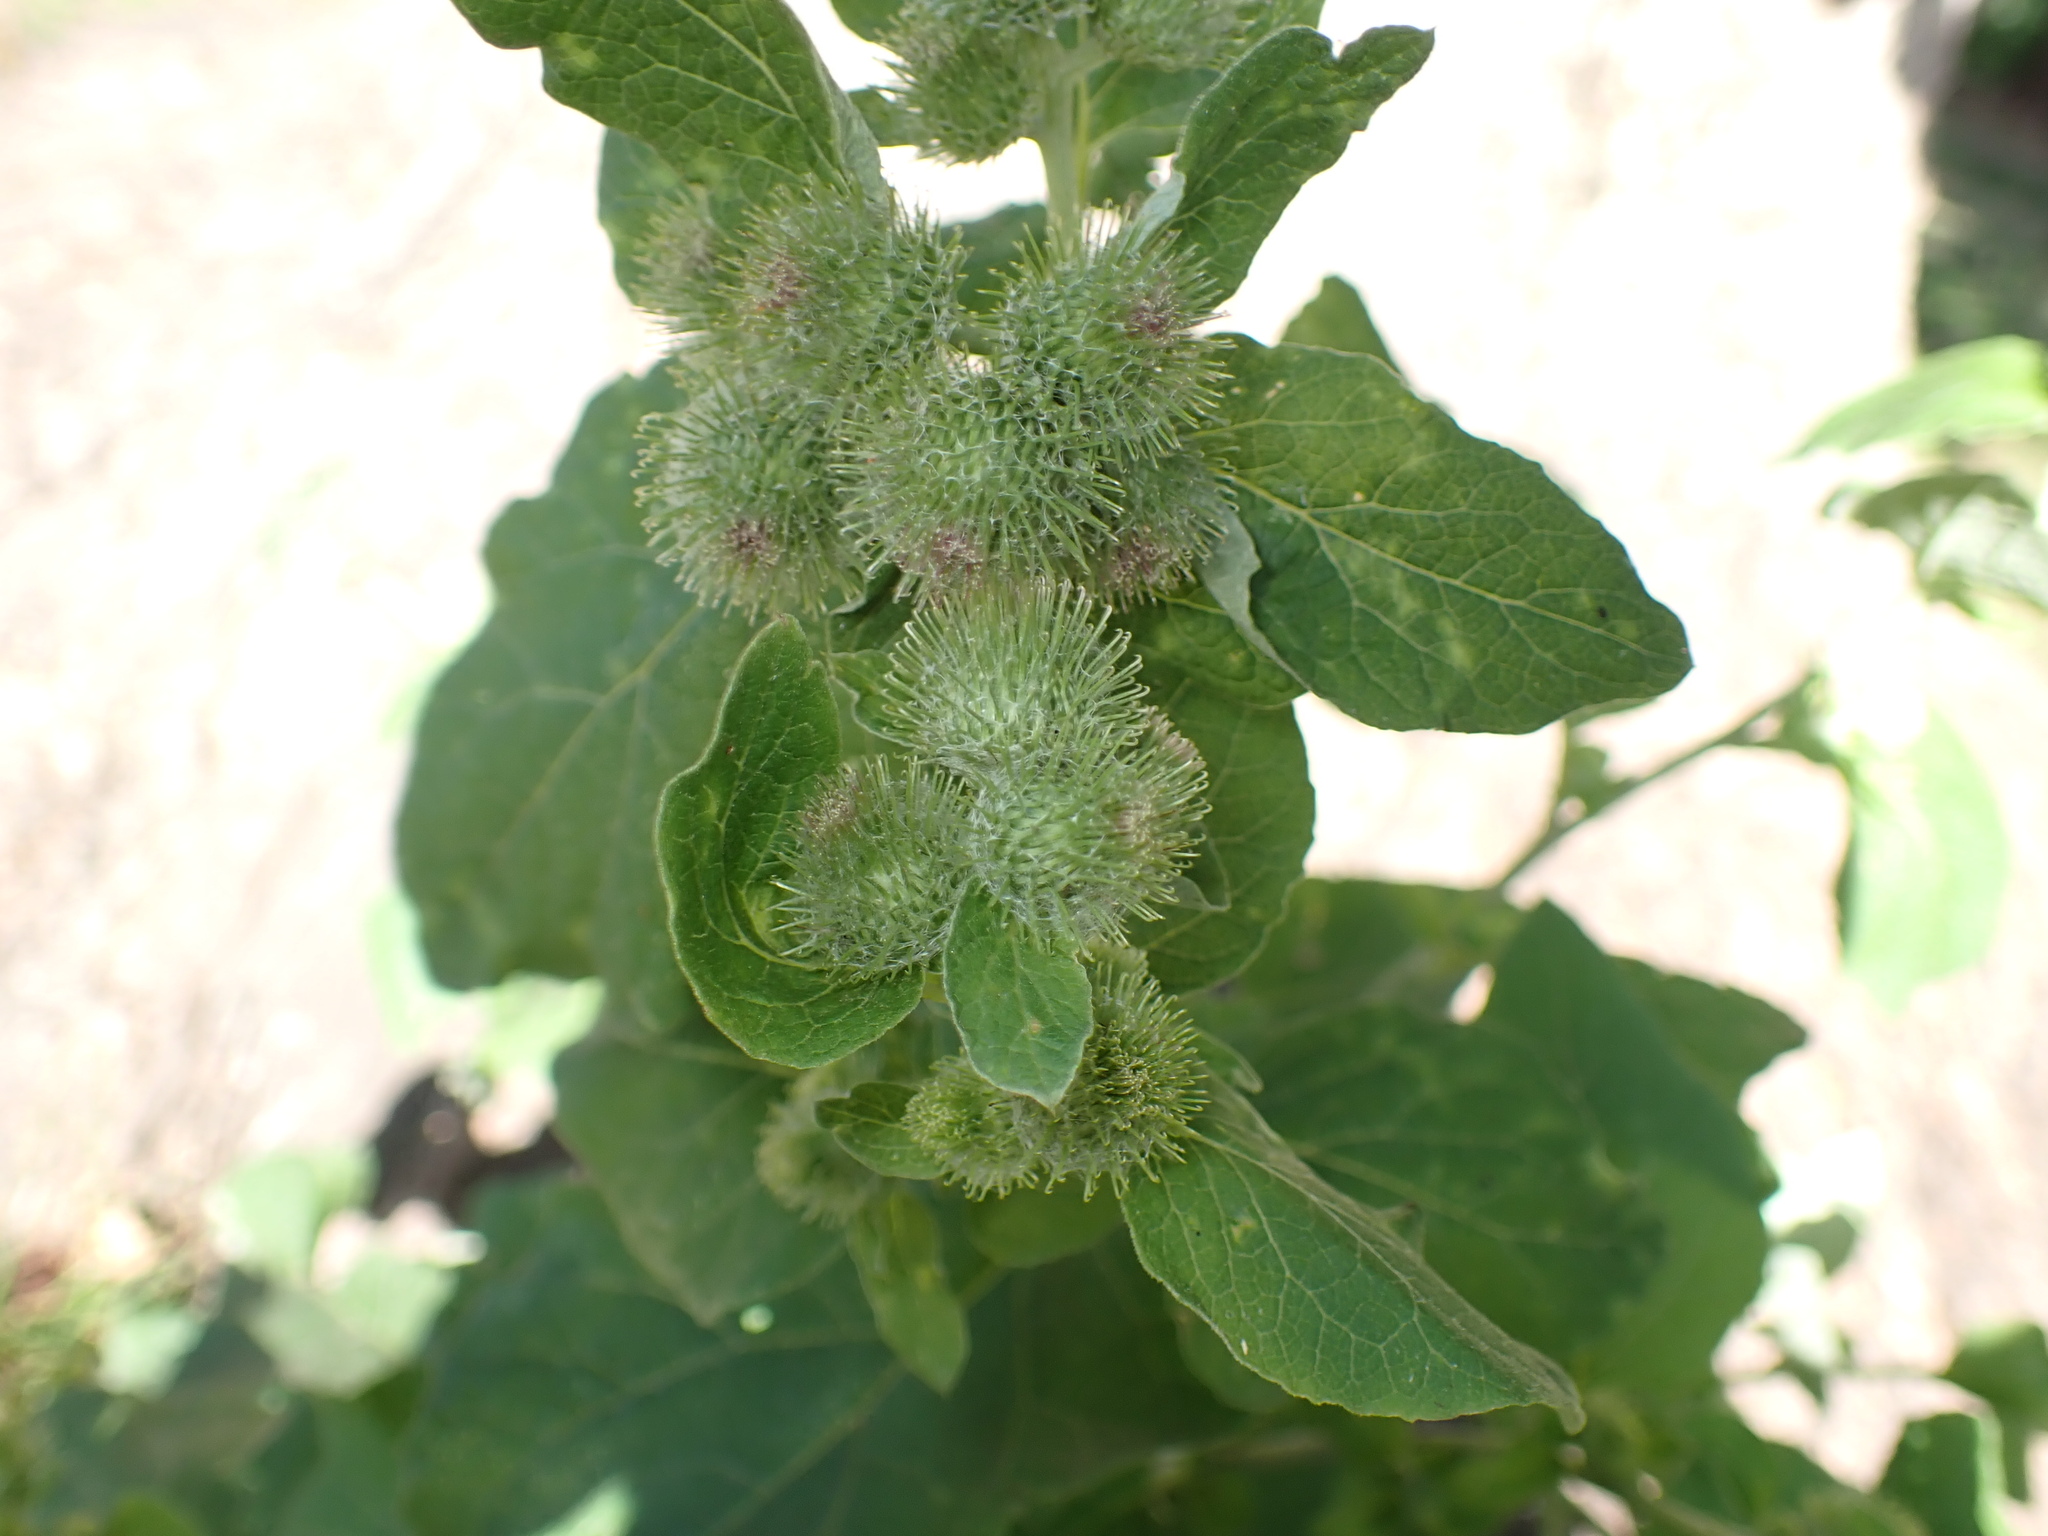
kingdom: Plantae
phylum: Tracheophyta
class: Magnoliopsida
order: Asterales
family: Asteraceae
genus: Arctium
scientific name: Arctium minus
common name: Lesser burdock
